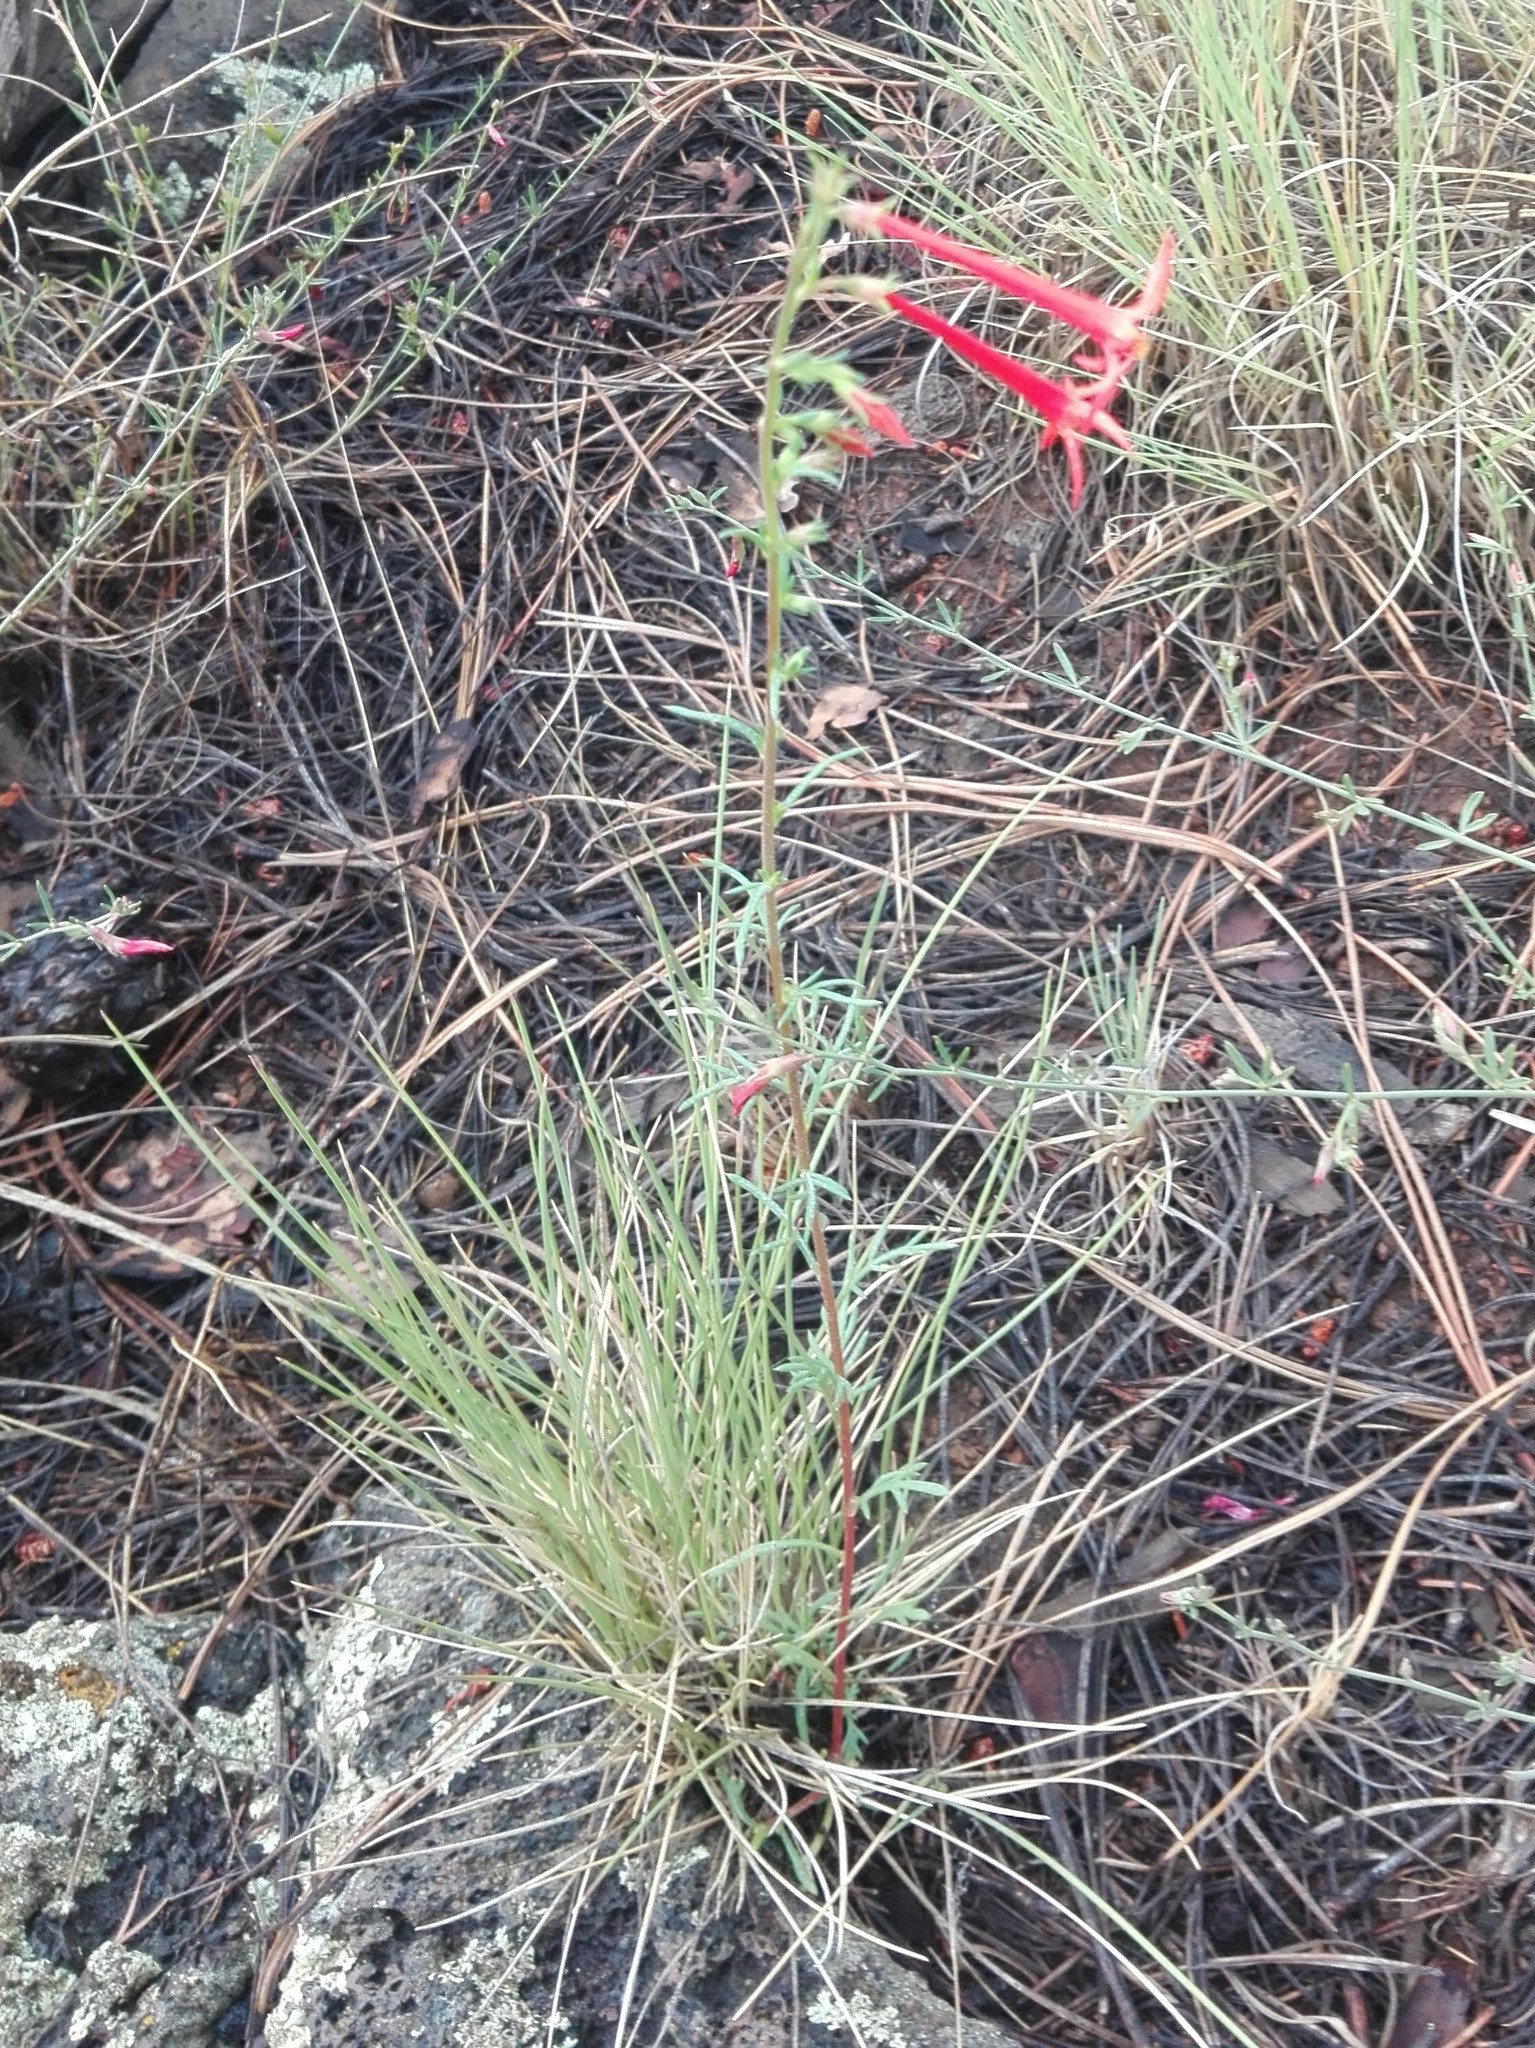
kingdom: Plantae
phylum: Tracheophyta
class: Magnoliopsida
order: Ericales
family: Polemoniaceae
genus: Ipomopsis
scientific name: Ipomopsis aggregata
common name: Scarlet gilia
